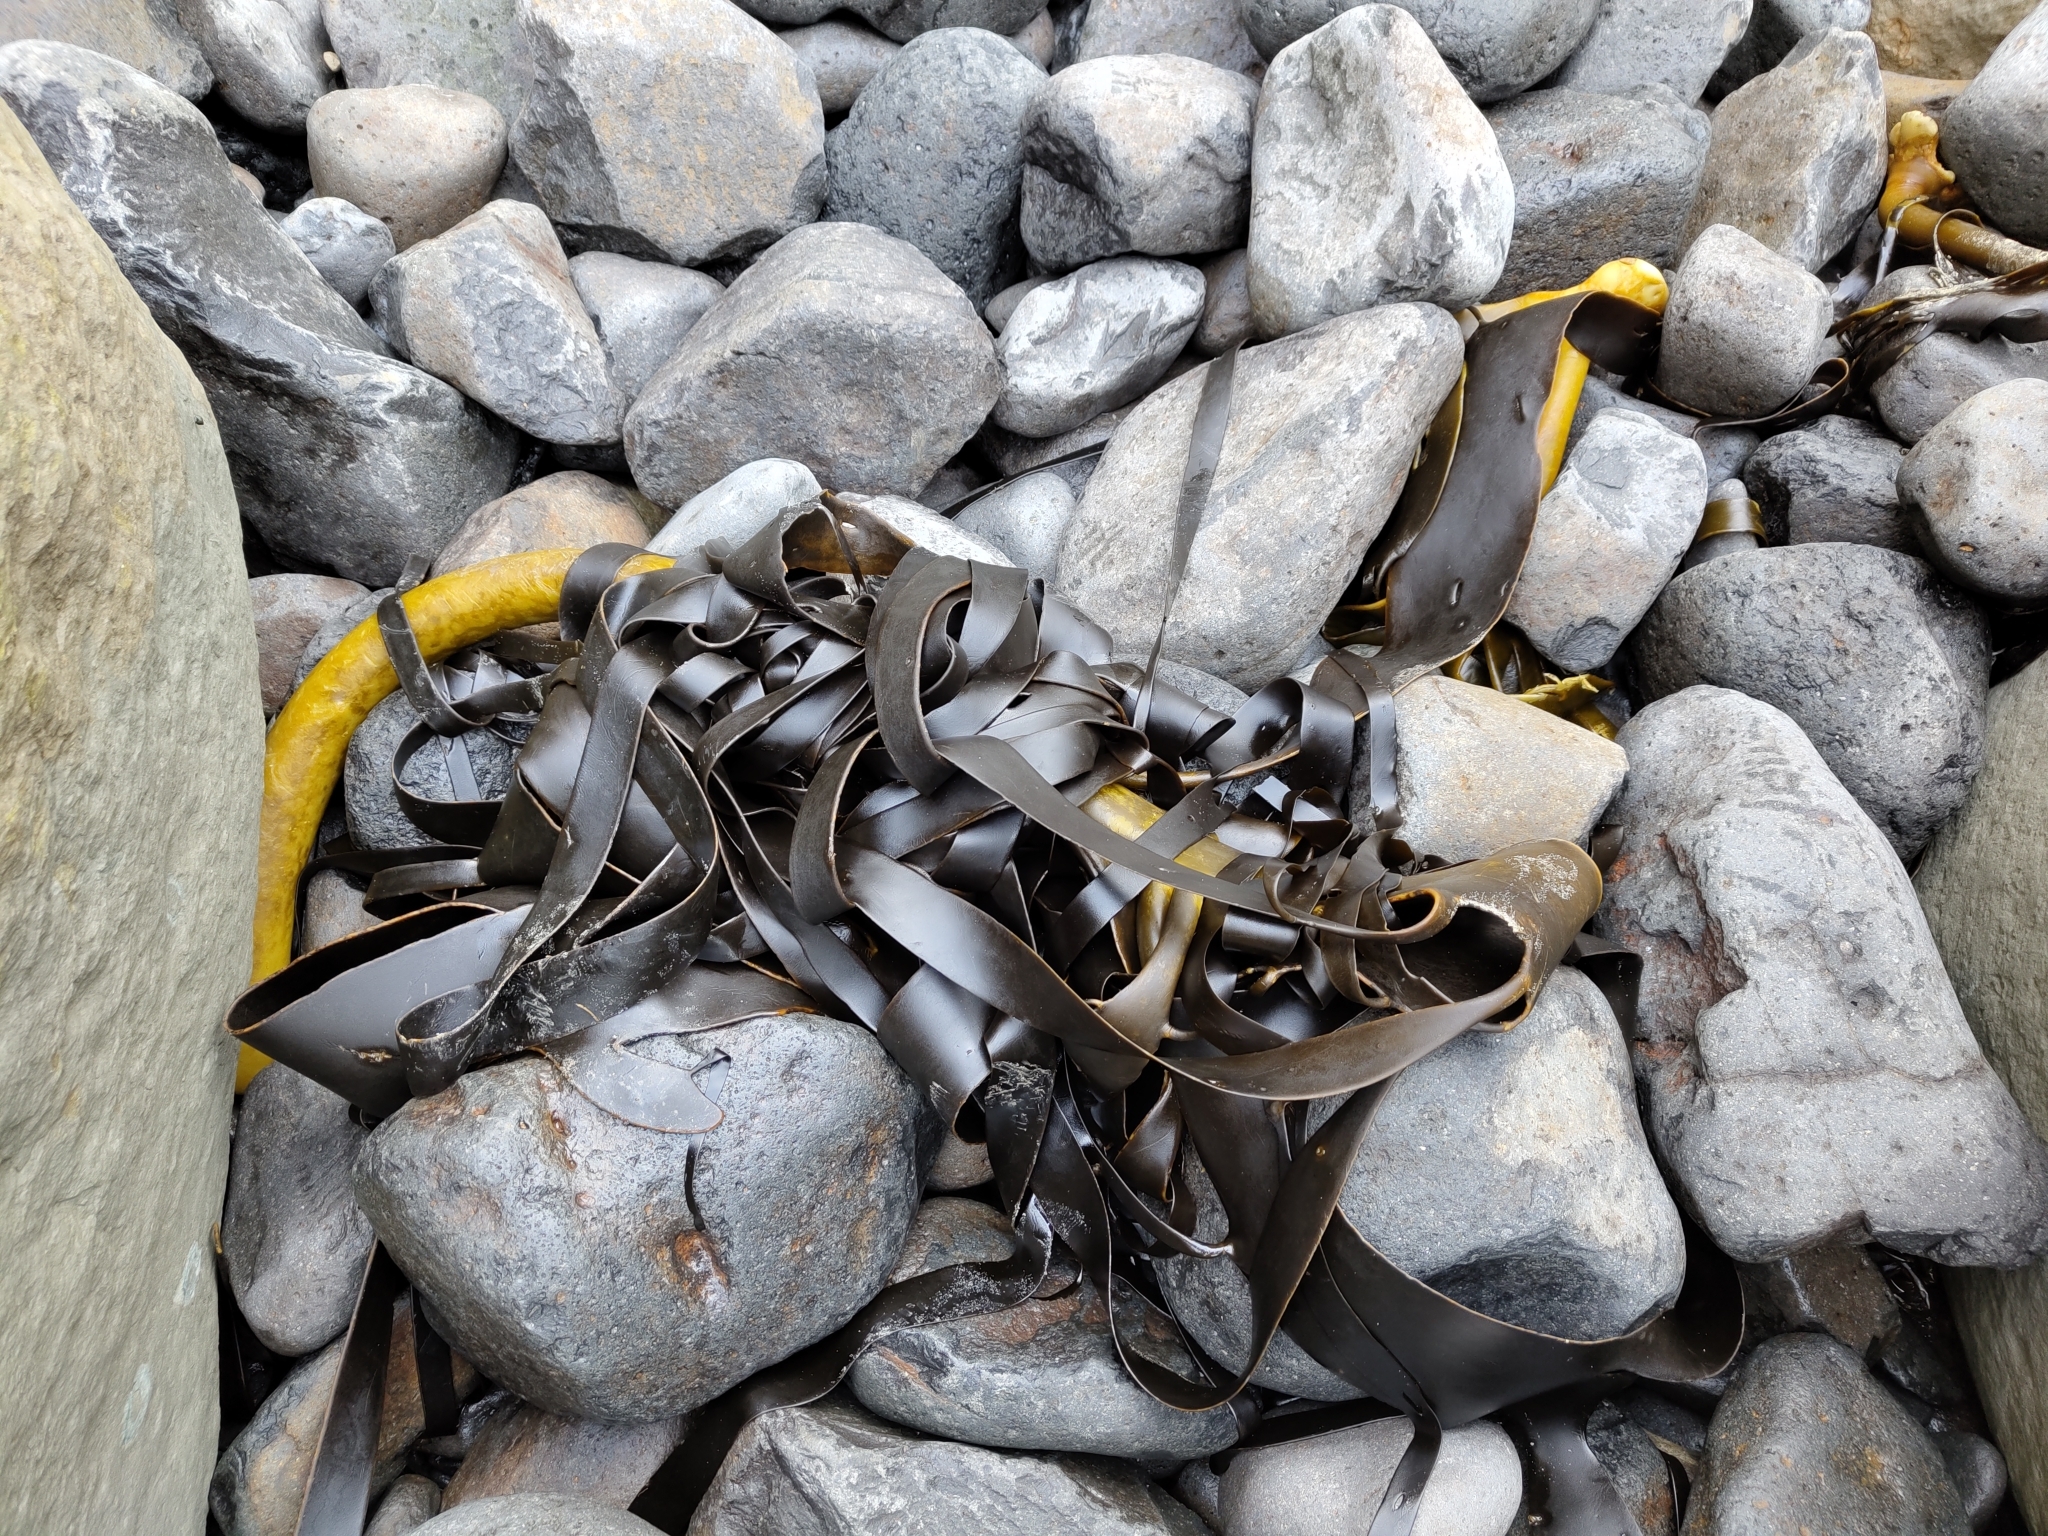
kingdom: Chromista
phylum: Ochrophyta
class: Phaeophyceae
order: Fucales
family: Durvillaeaceae
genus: Durvillaea
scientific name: Durvillaea willana
